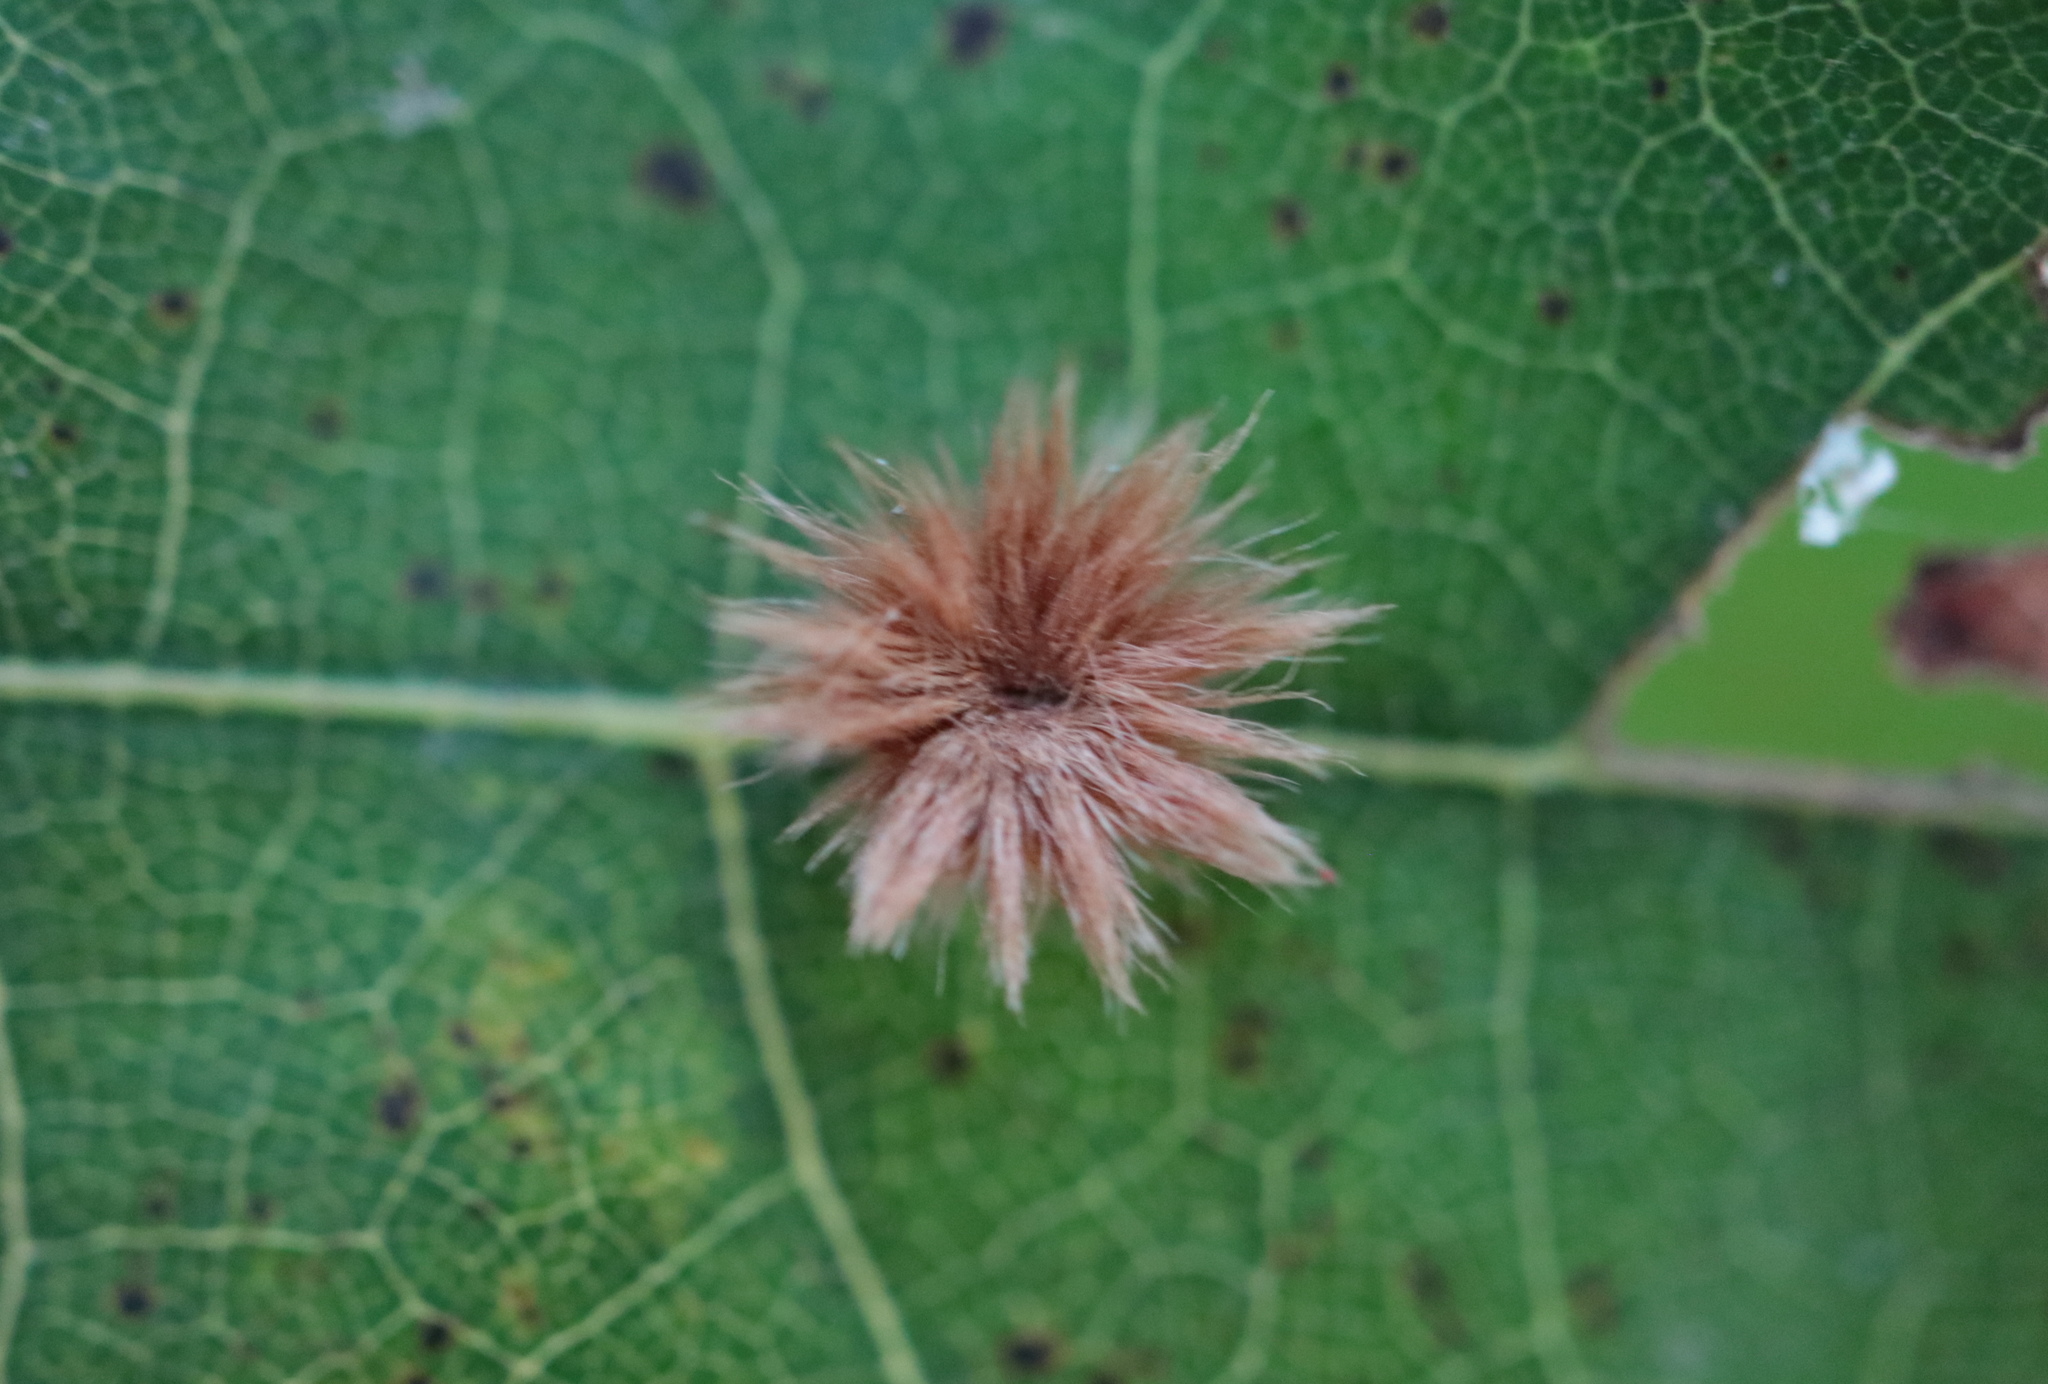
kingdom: Animalia
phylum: Arthropoda
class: Insecta
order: Hymenoptera
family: Cynipidae
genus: Callirhytis
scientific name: Callirhytis
